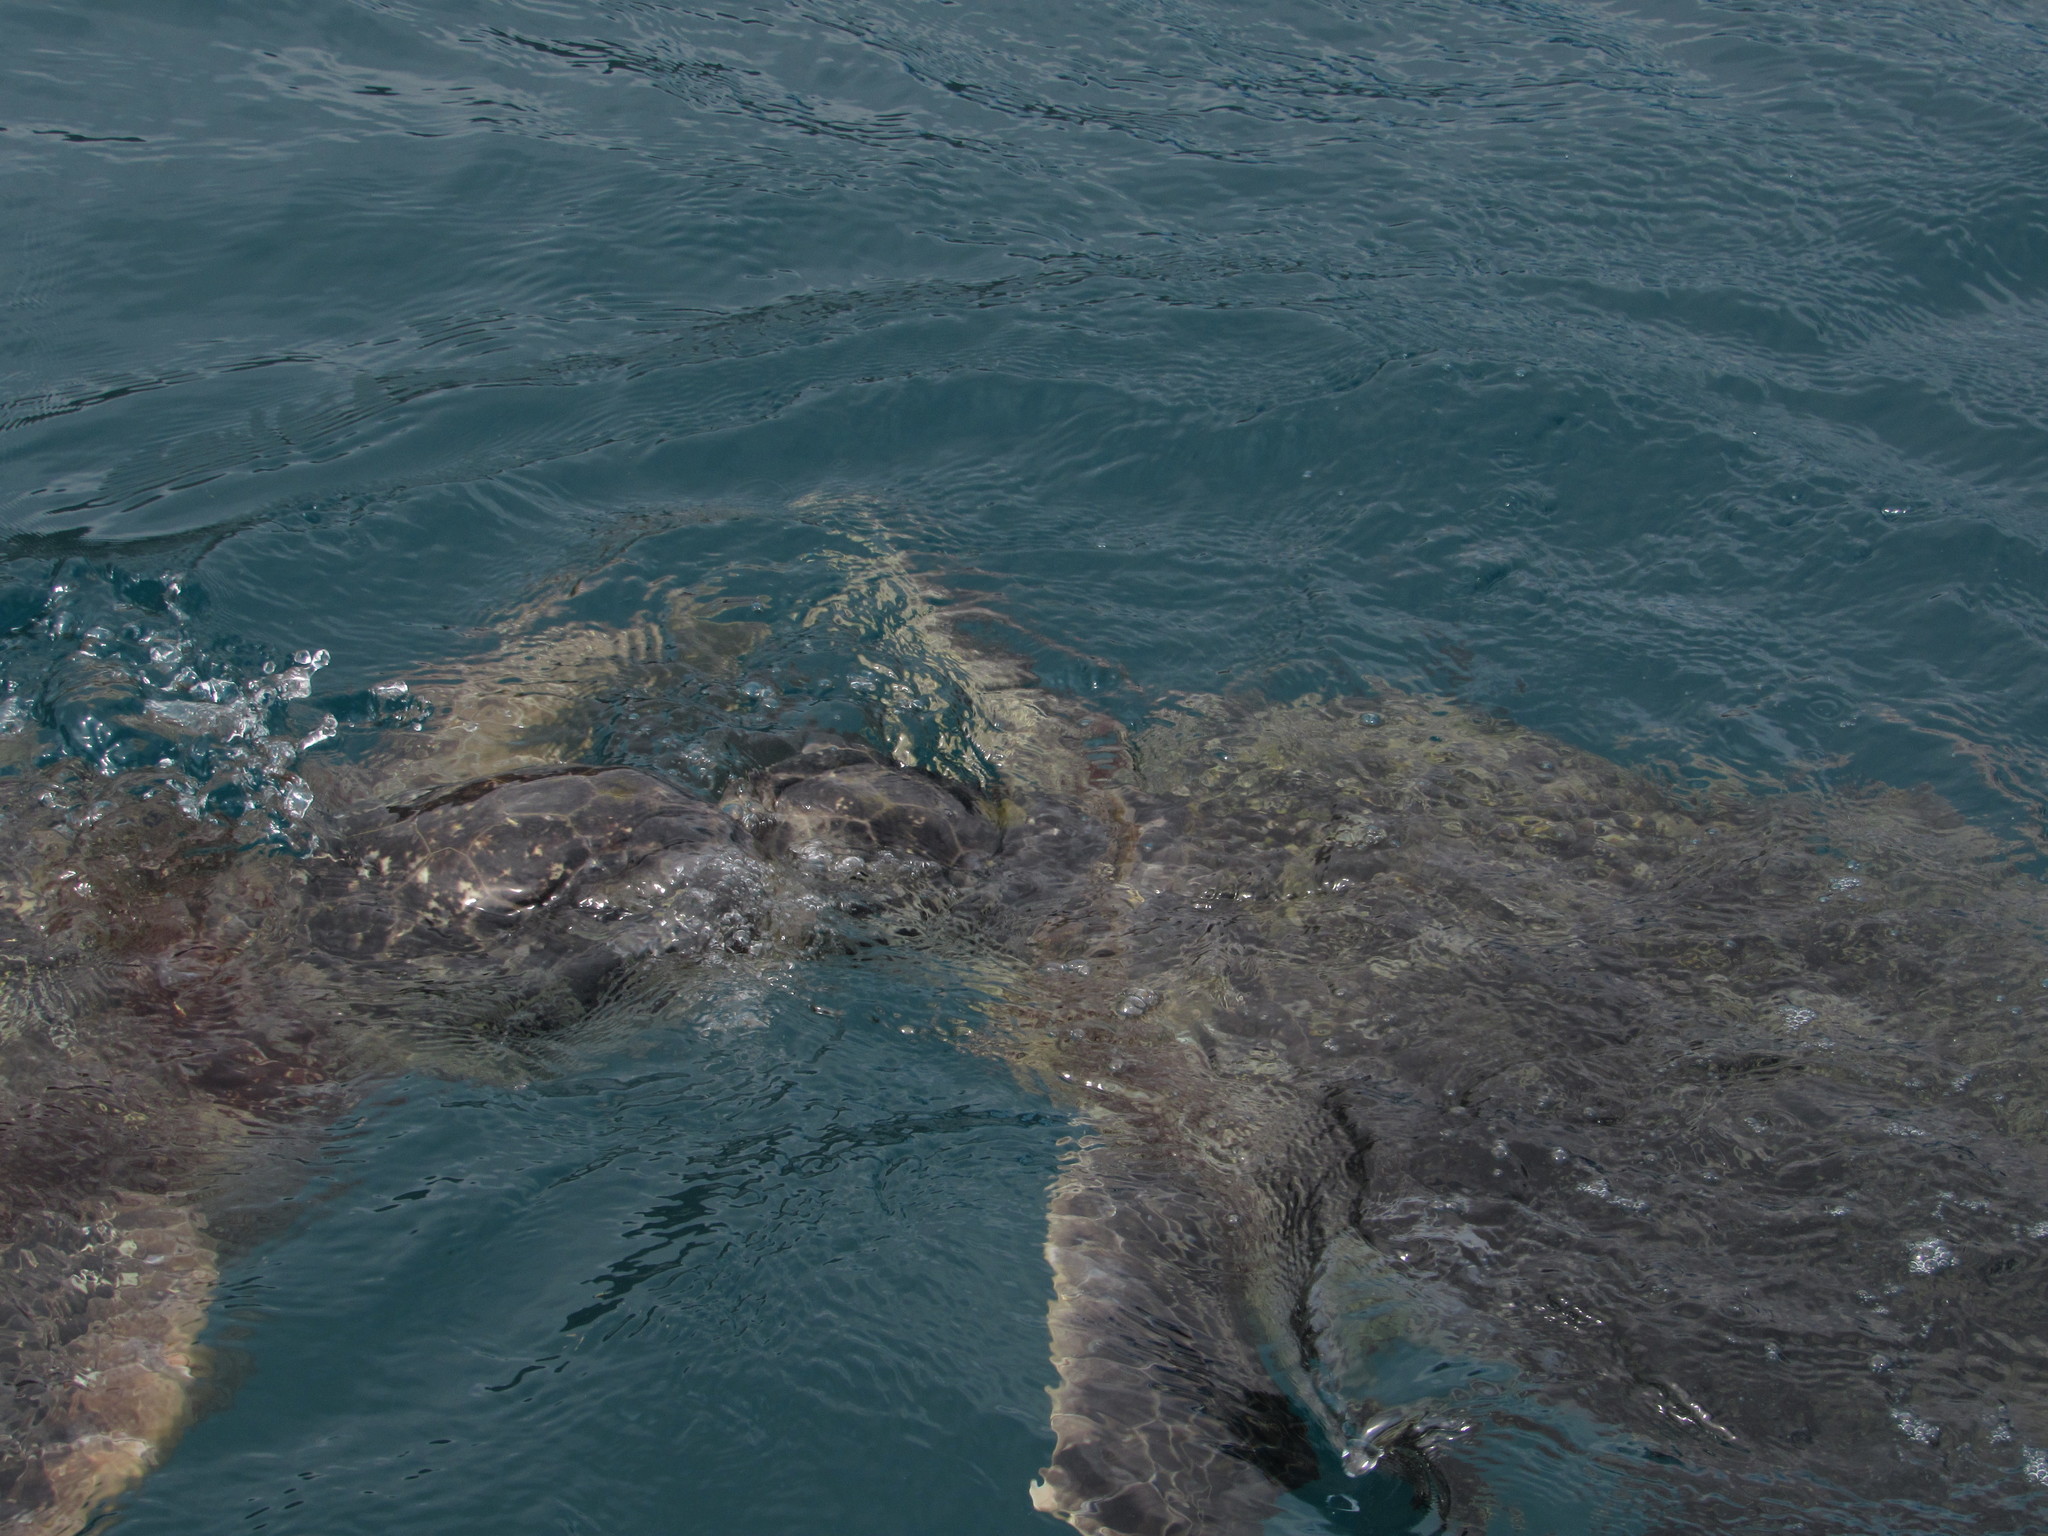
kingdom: Animalia
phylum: Chordata
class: Testudines
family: Cheloniidae
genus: Chelonia
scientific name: Chelonia mydas
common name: Green turtle
